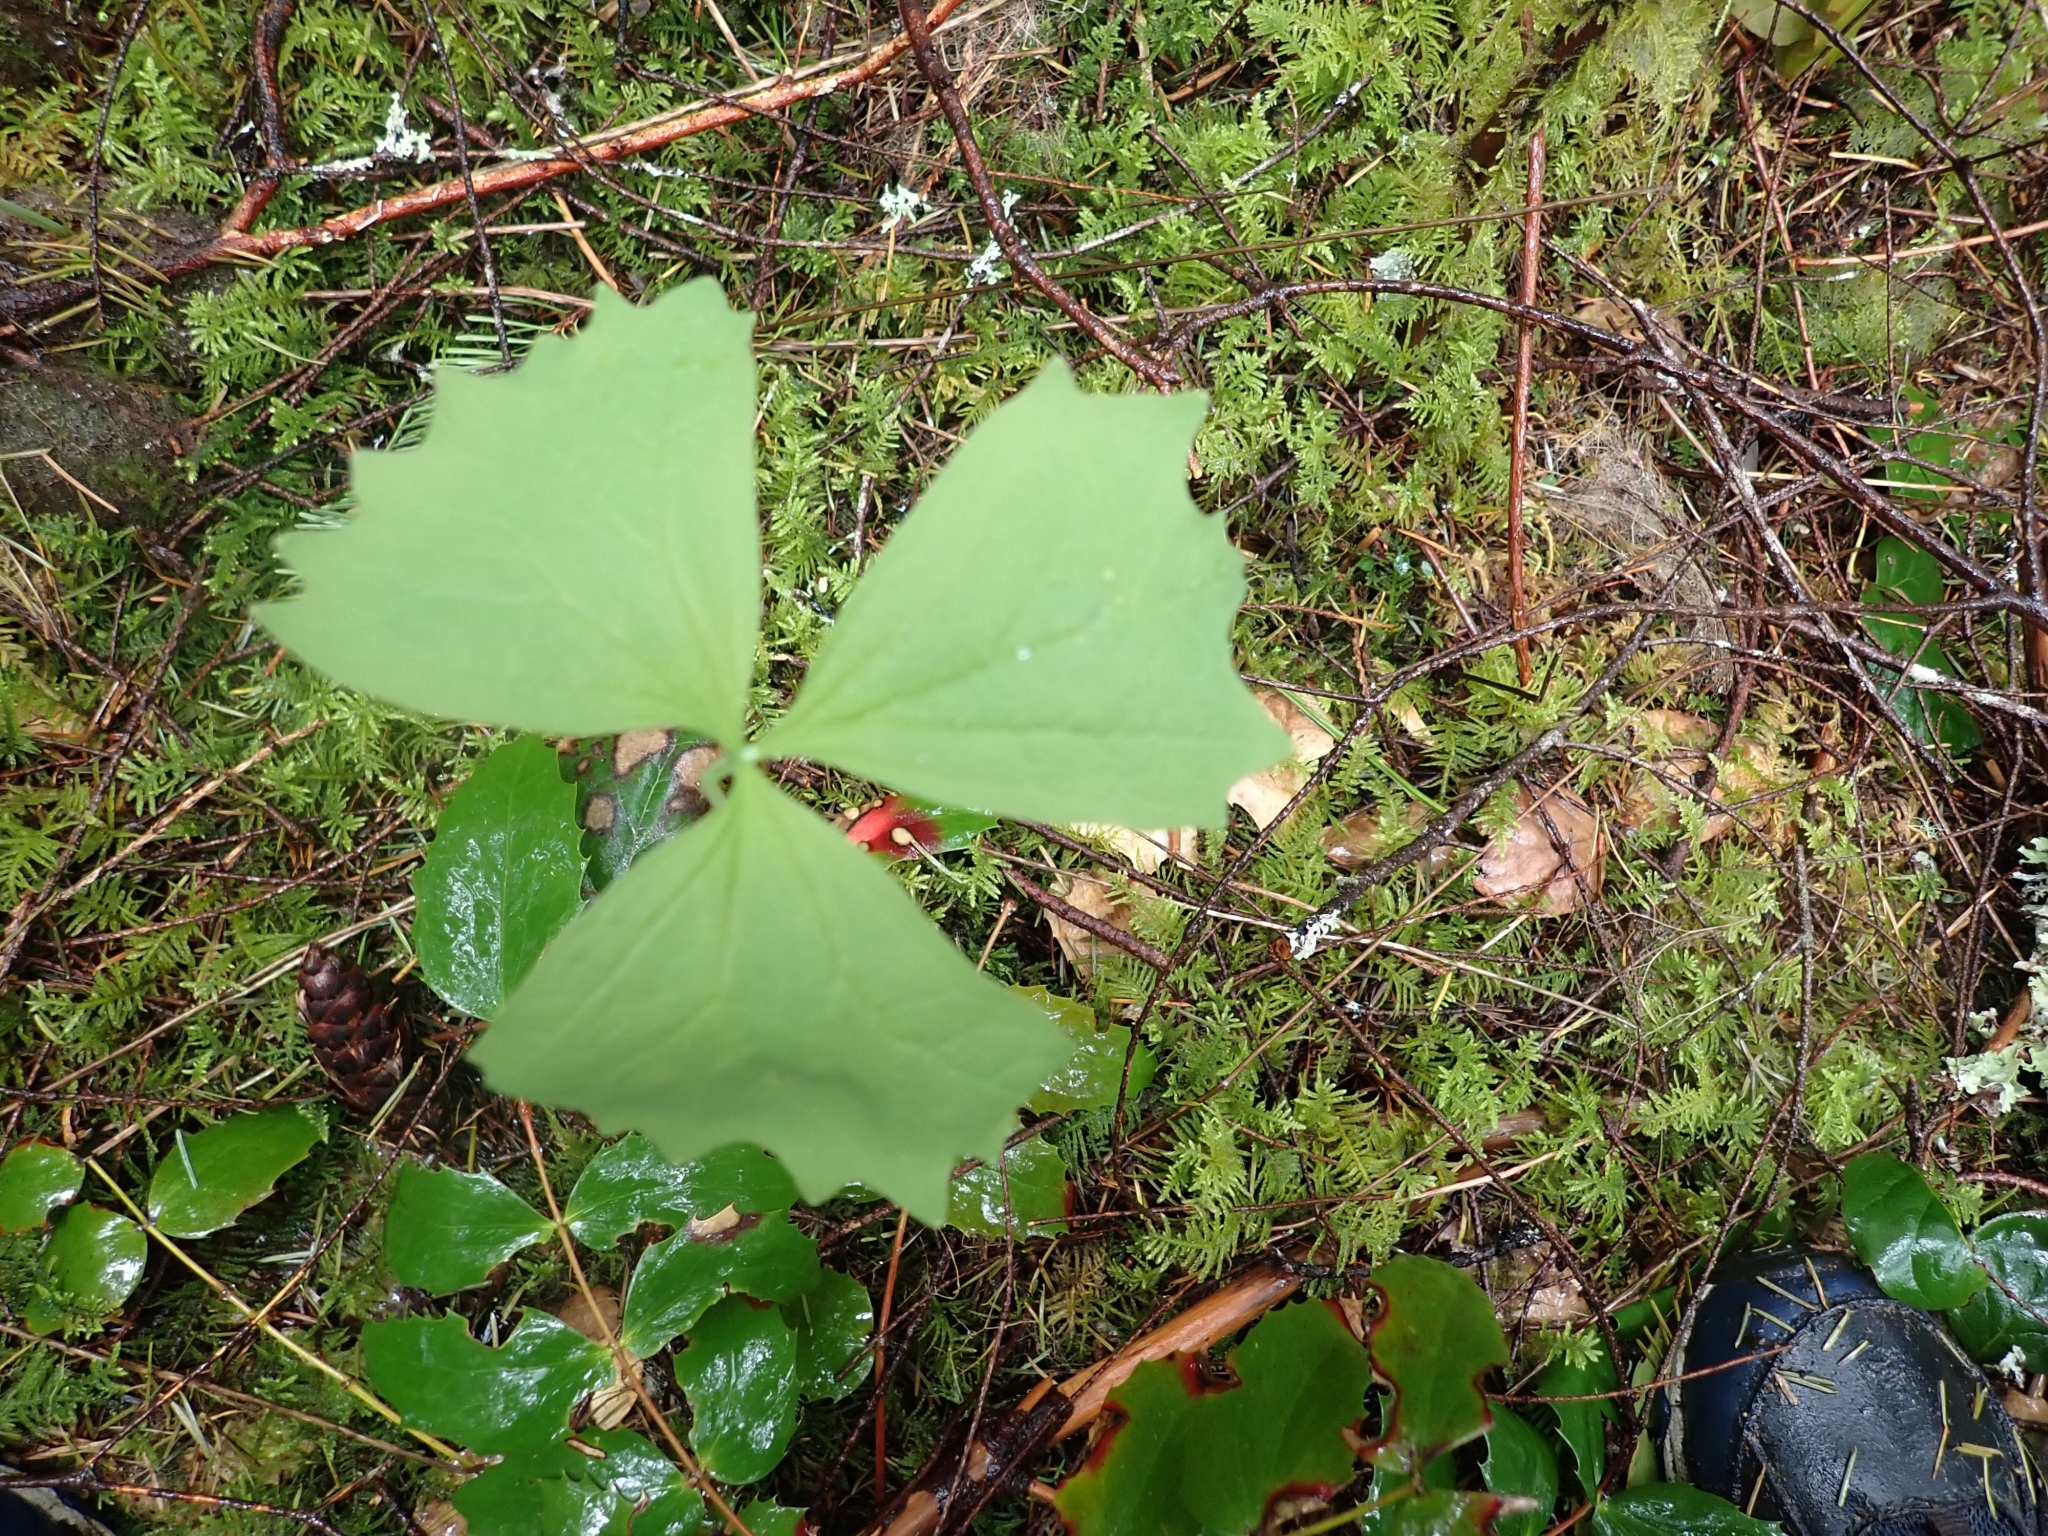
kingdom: Plantae
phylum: Tracheophyta
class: Magnoliopsida
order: Ranunculales
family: Berberidaceae
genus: Achlys
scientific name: Achlys triphylla
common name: Vanilla-leaf
